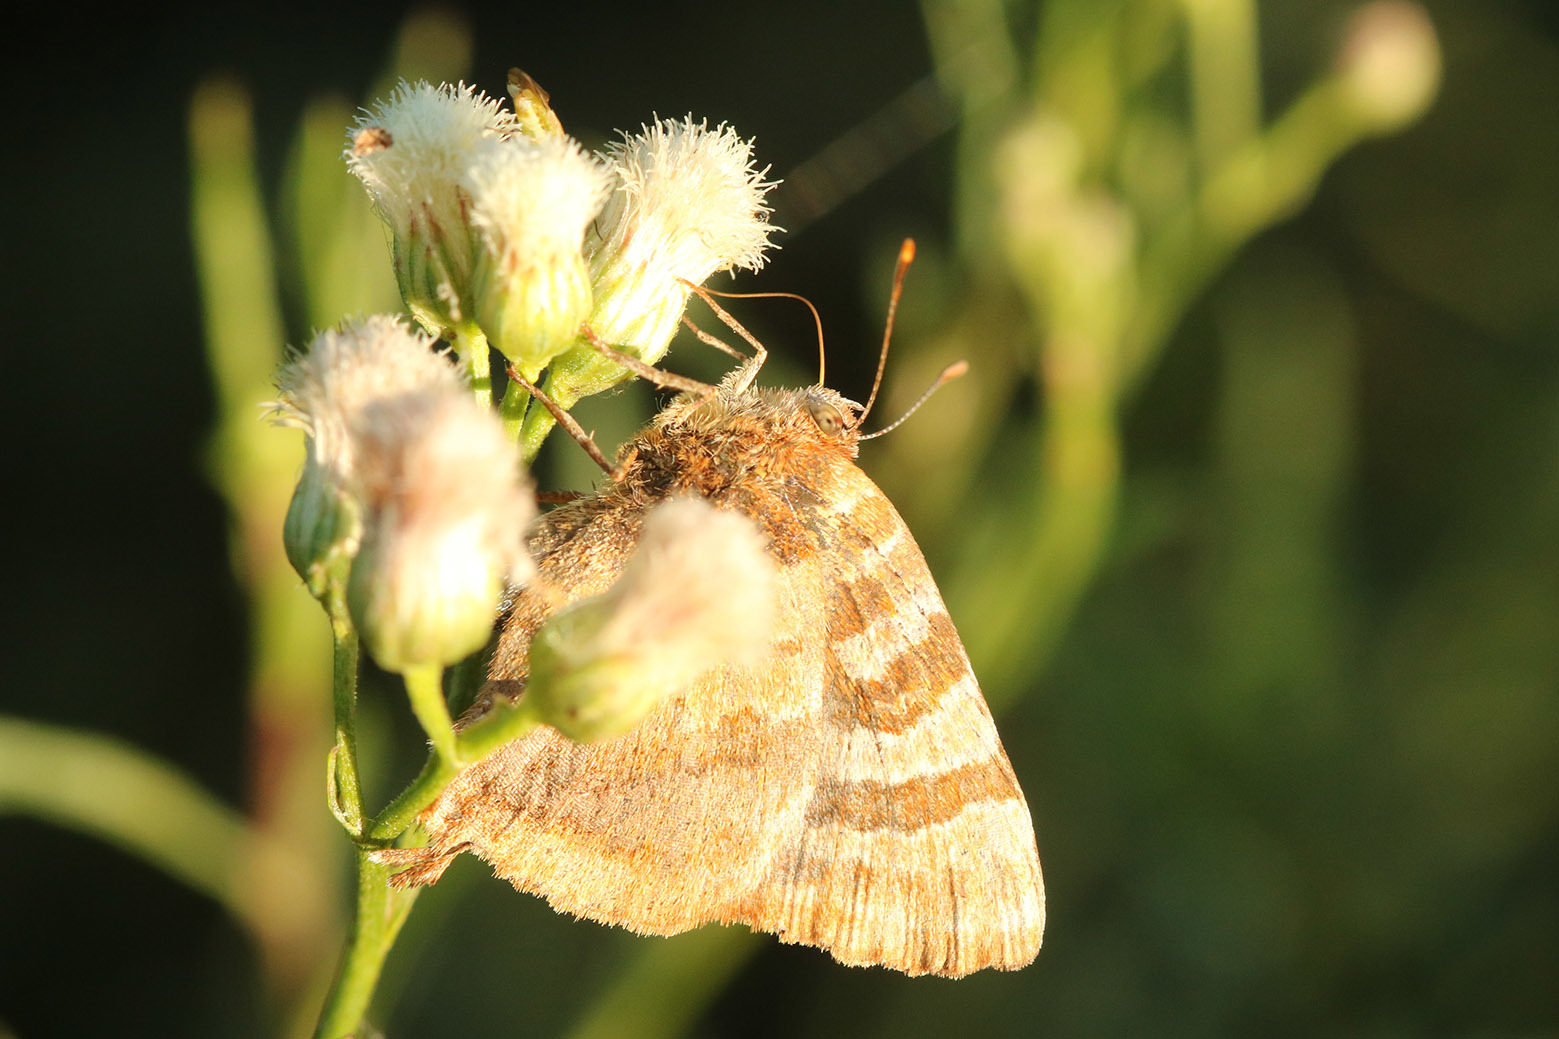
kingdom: Animalia
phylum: Arthropoda
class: Insecta
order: Lepidoptera
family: Lycaenidae
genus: Arawacus
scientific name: Arawacus ellida
